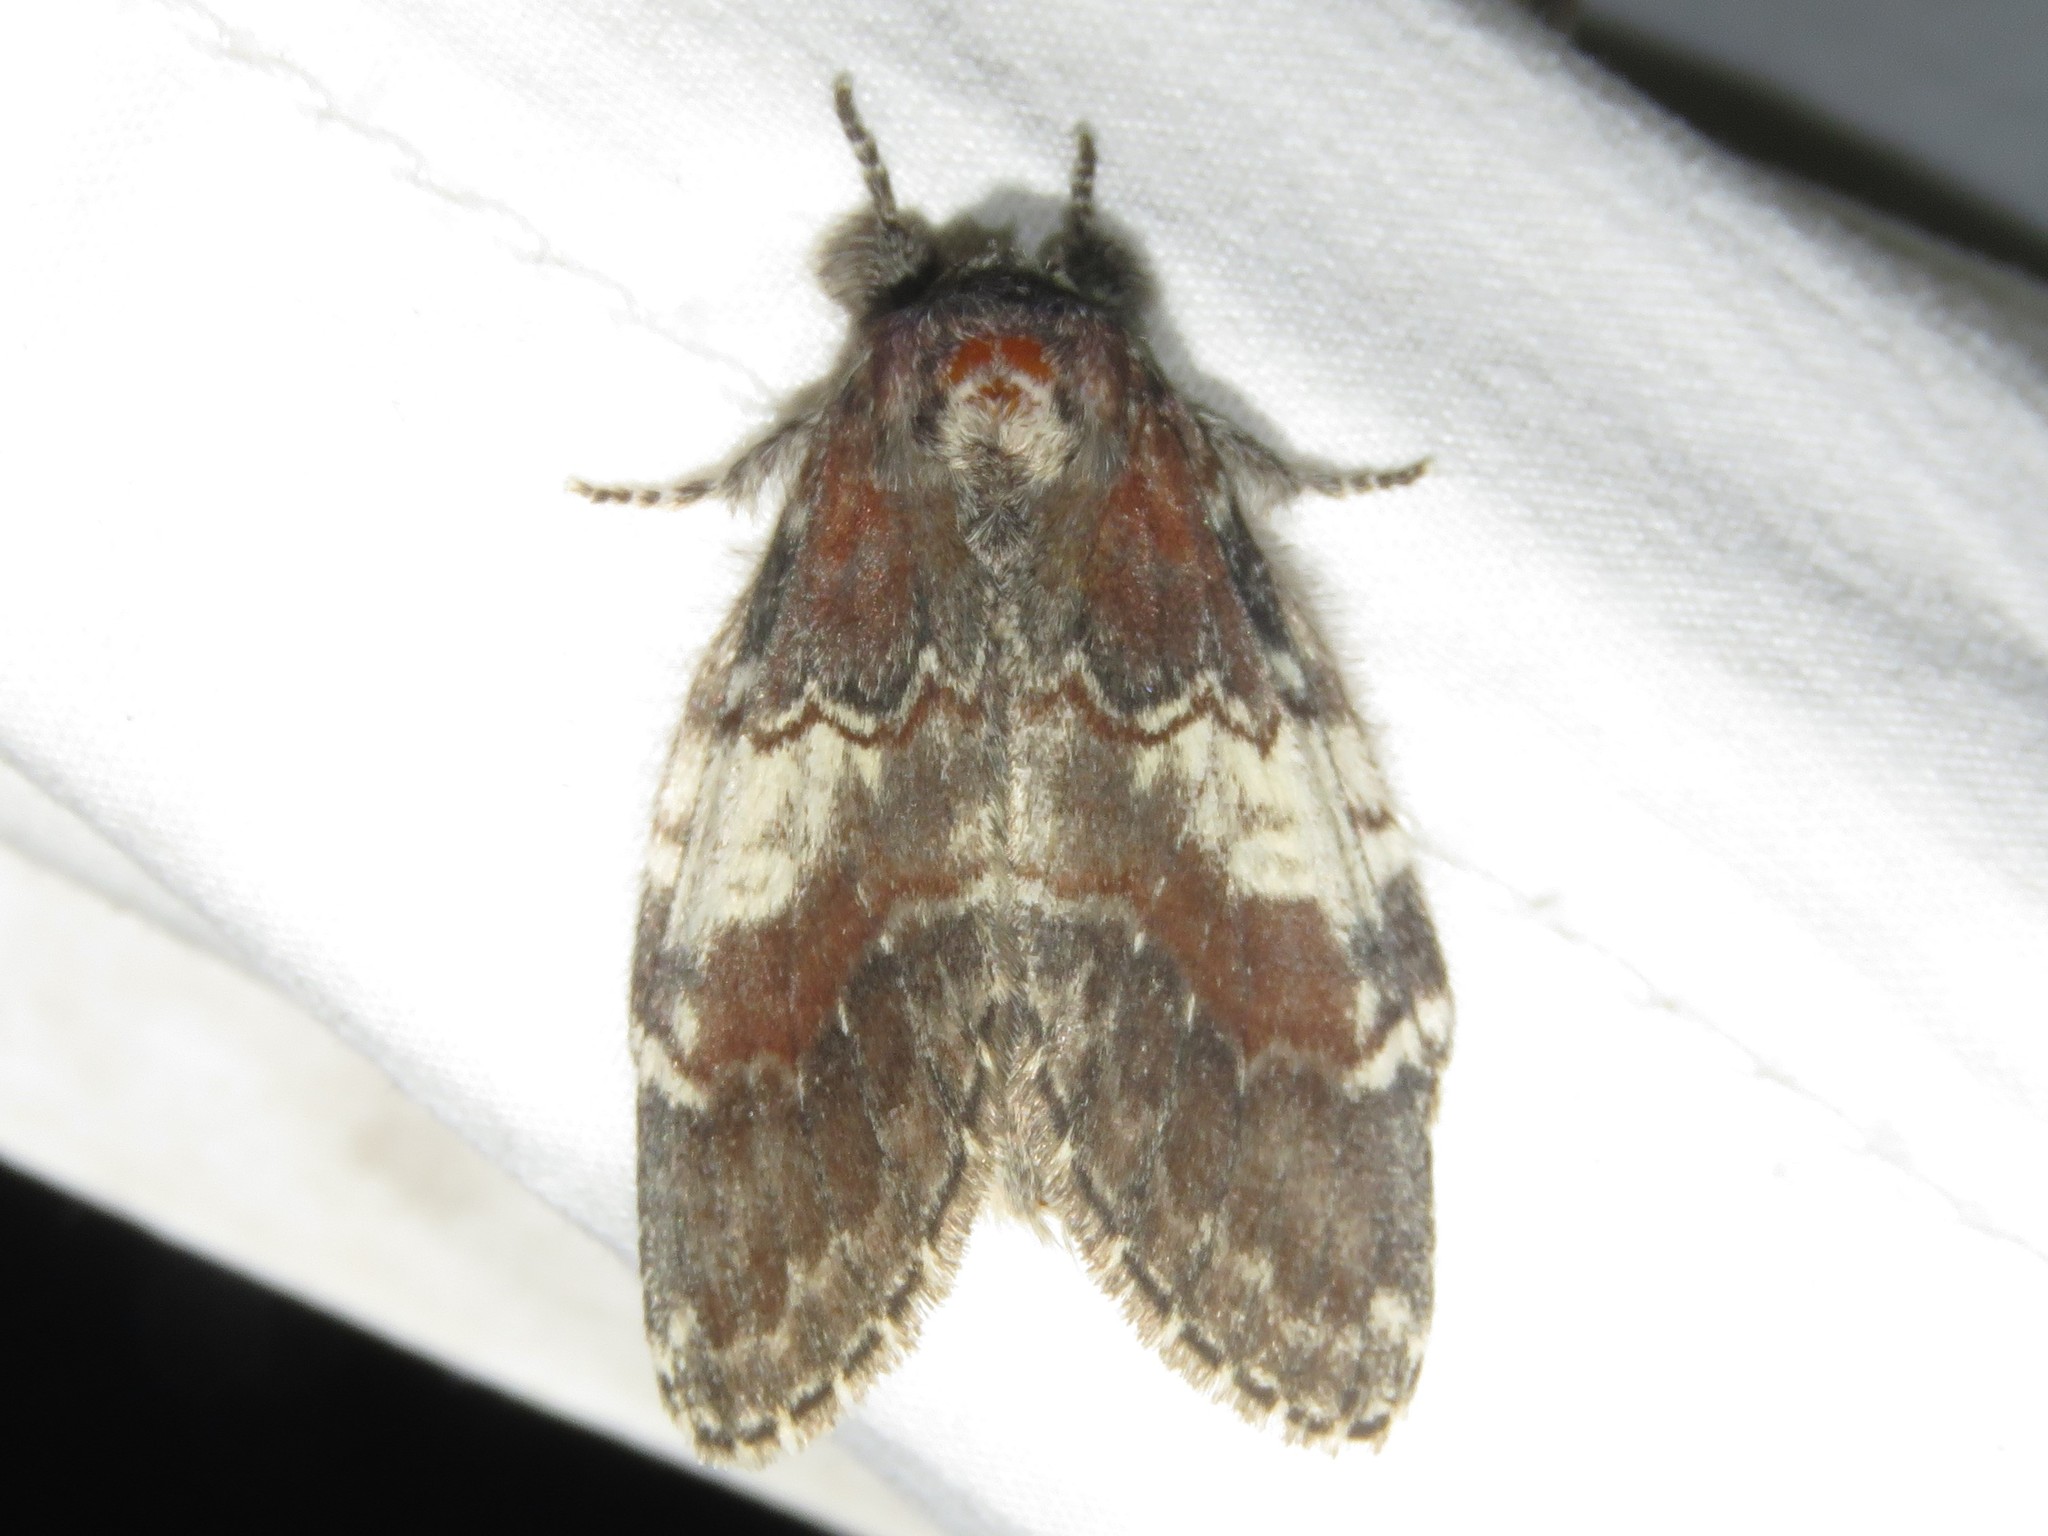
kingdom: Animalia
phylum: Arthropoda
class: Insecta
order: Lepidoptera
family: Notodontidae
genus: Peridea
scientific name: Peridea ferruginea
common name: Chocolate prominent
